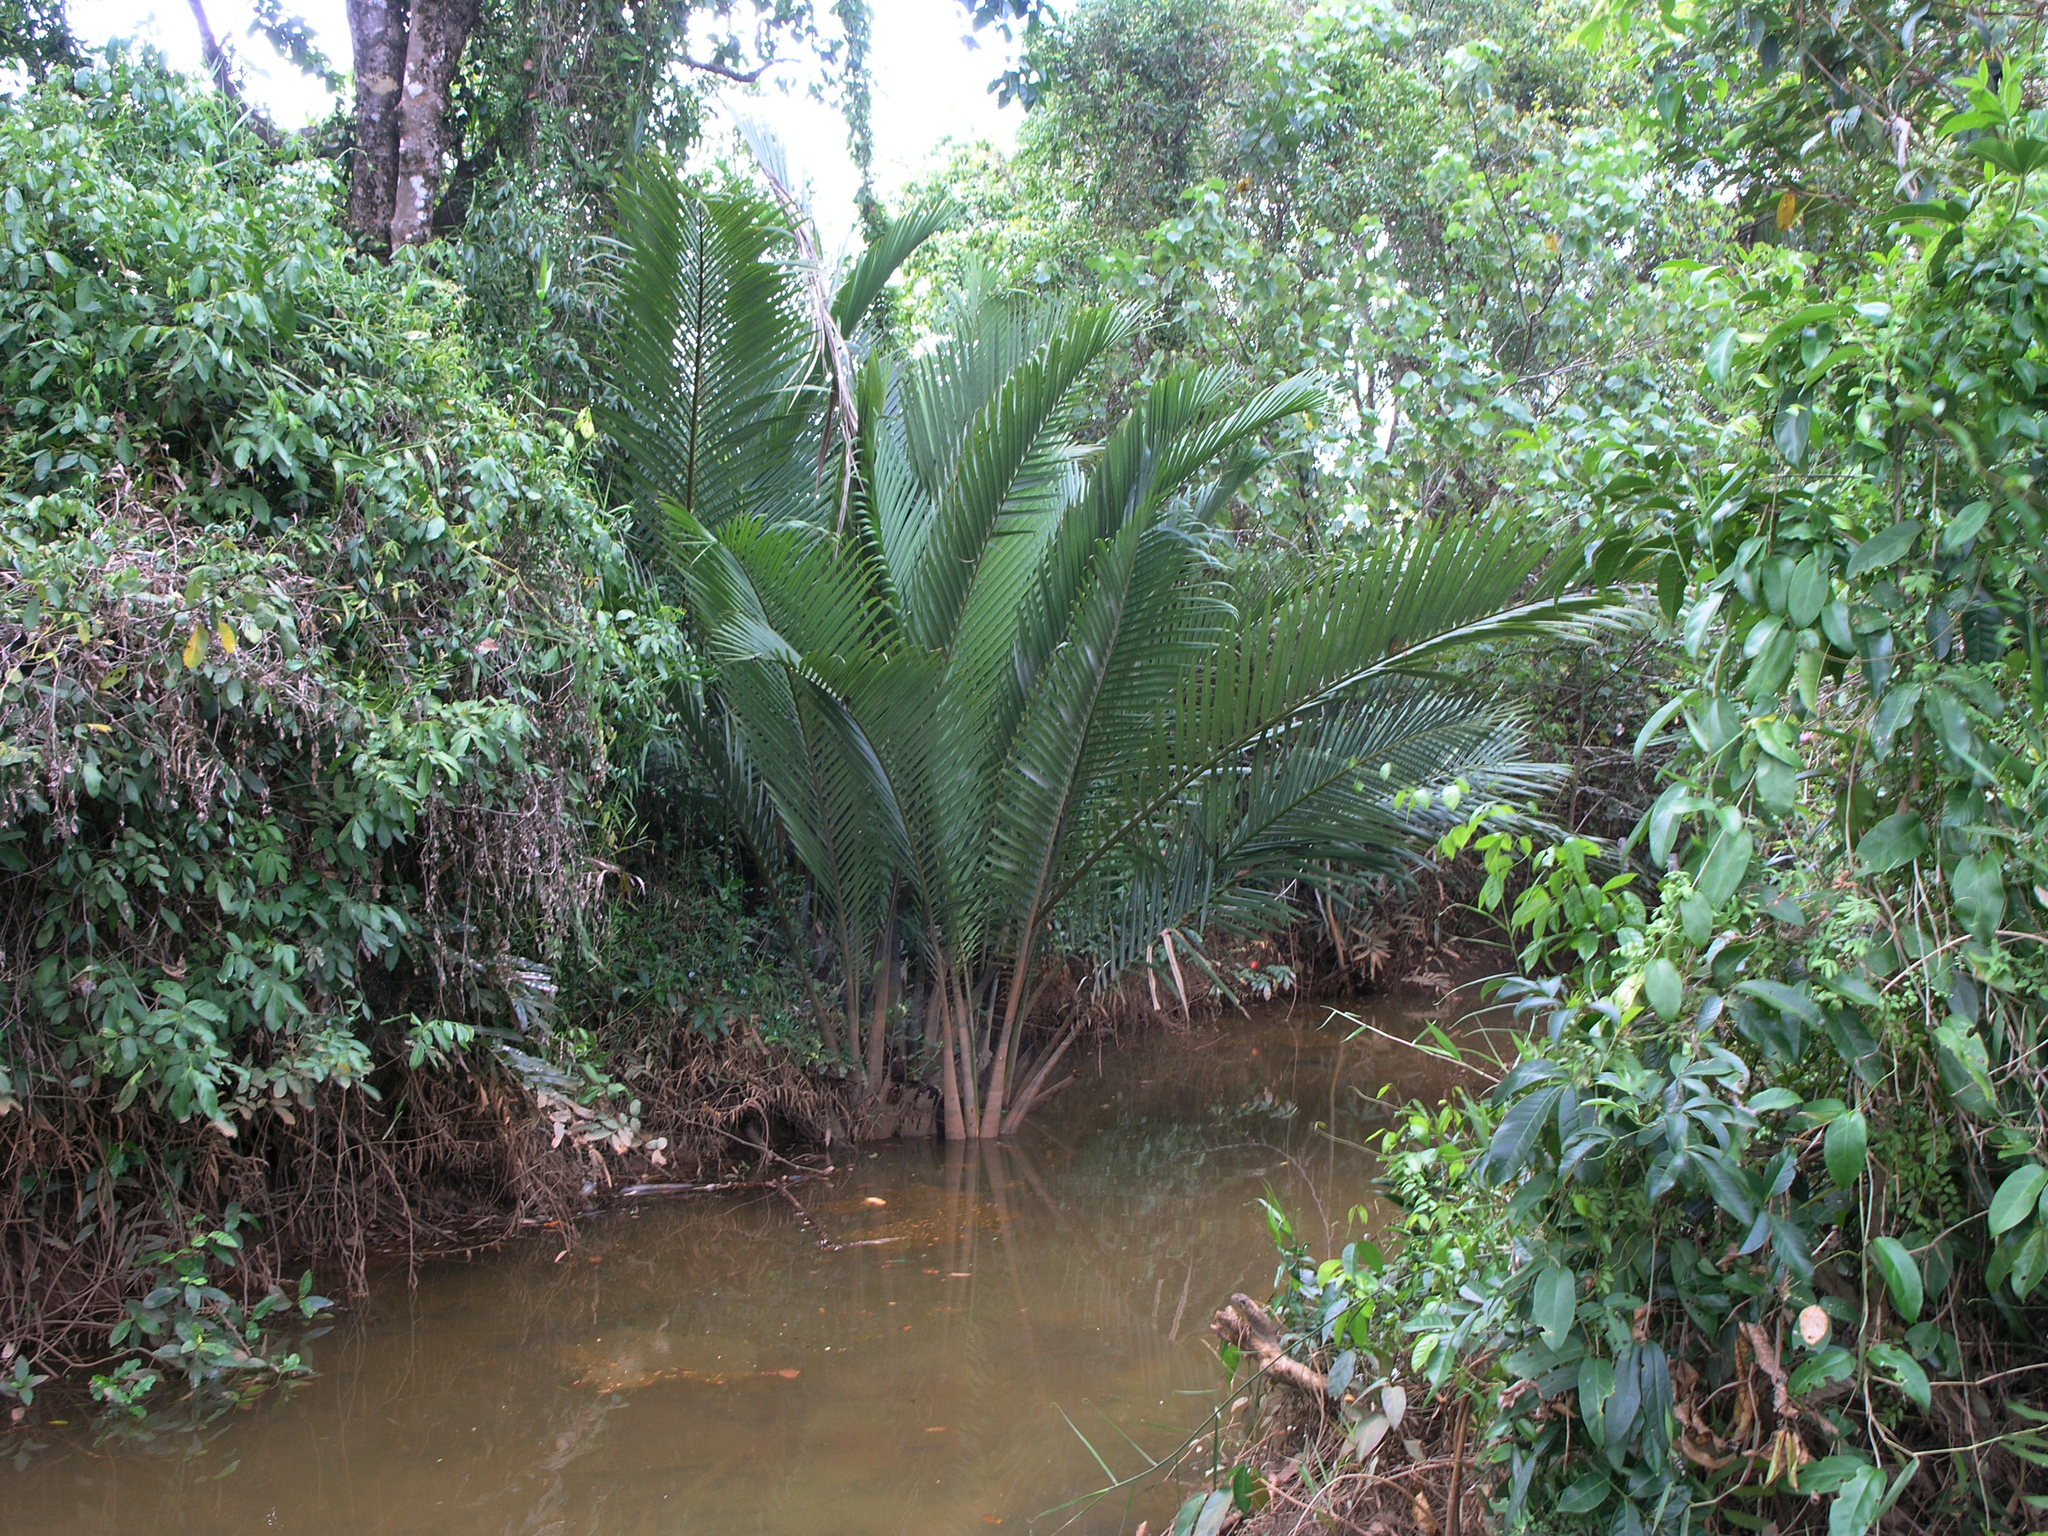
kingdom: Plantae
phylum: Tracheophyta
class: Liliopsida
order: Arecales
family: Arecaceae
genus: Nypa
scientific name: Nypa fruticans
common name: Mangrove palm
